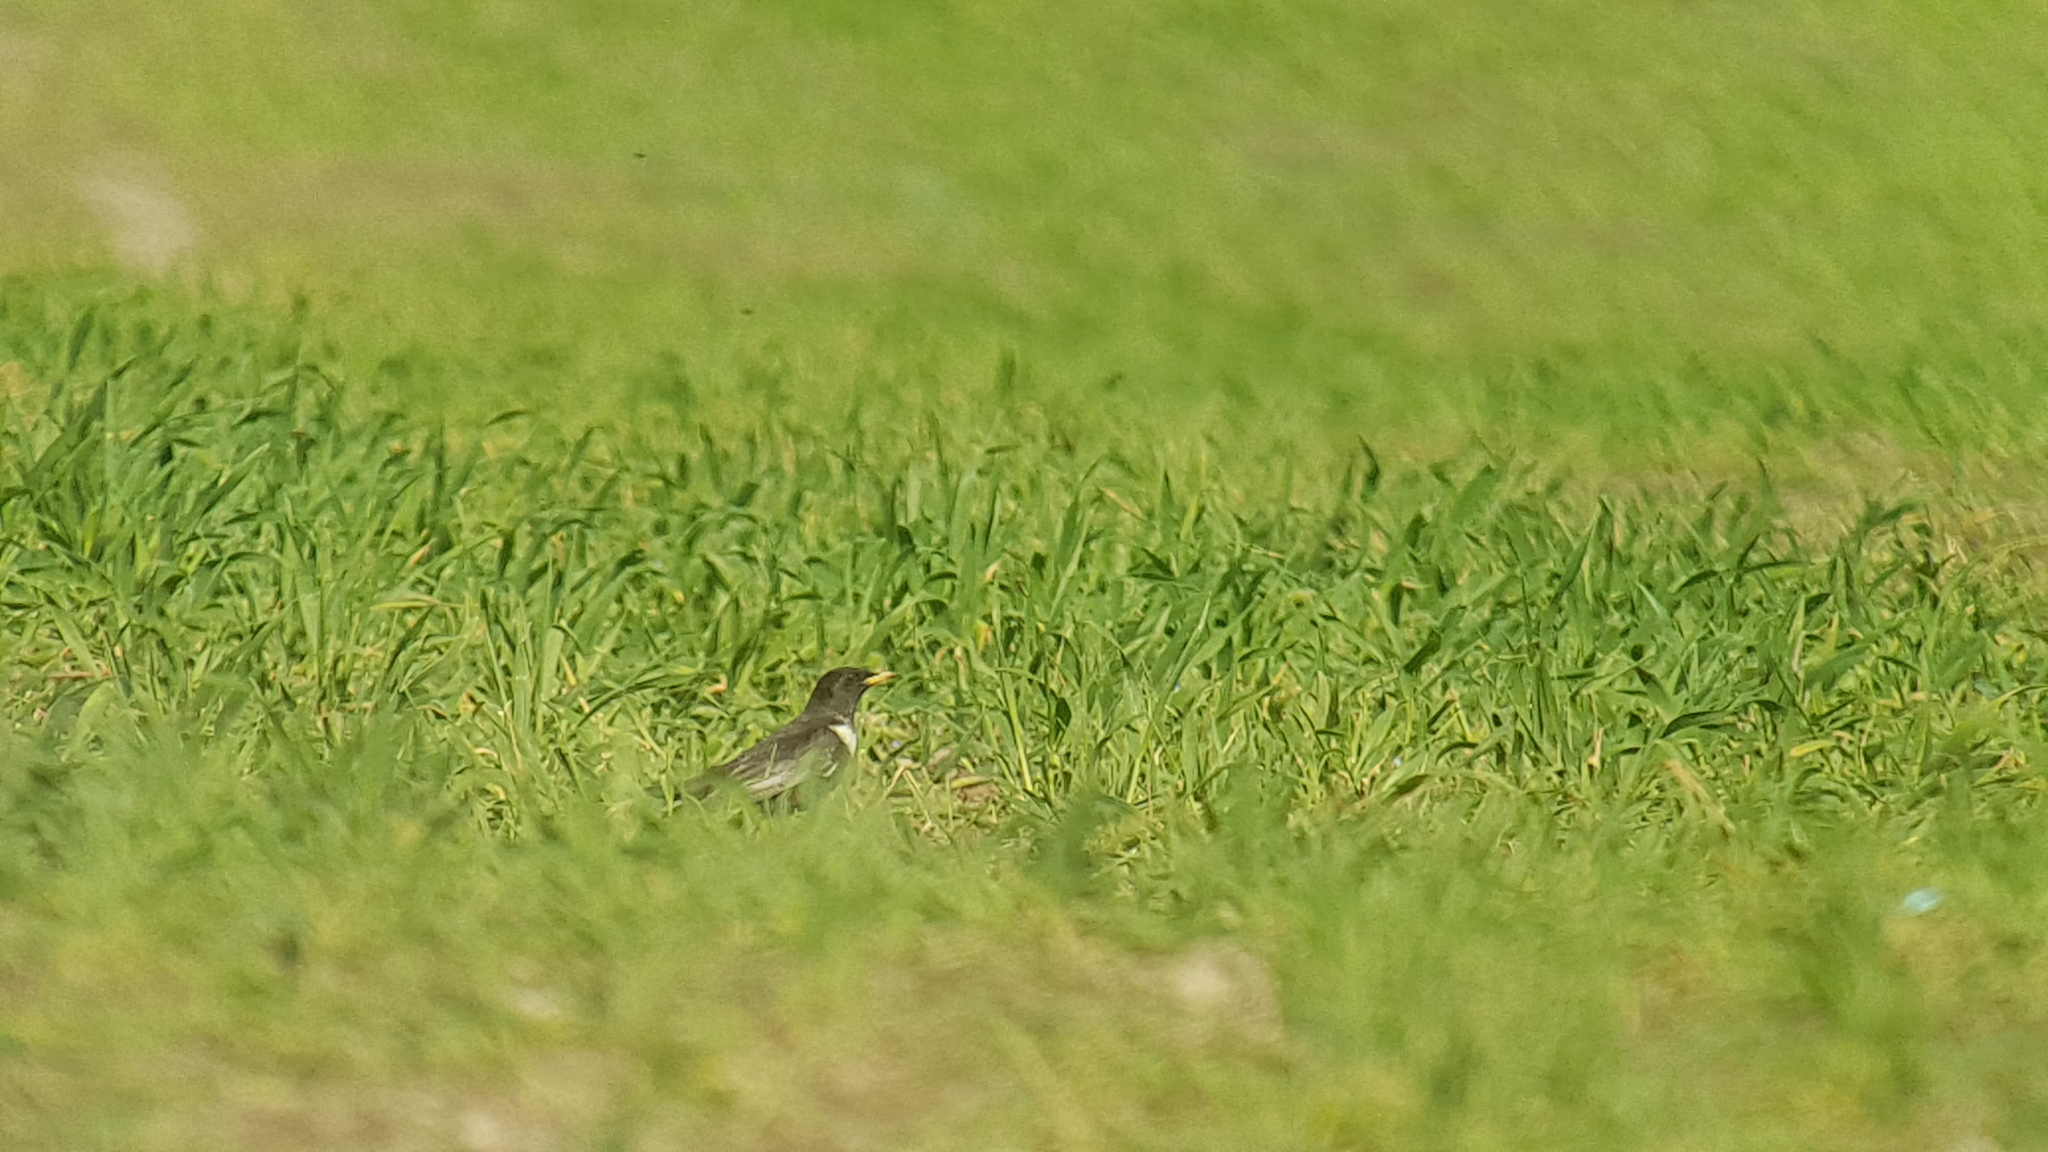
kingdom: Animalia
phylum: Chordata
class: Aves
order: Passeriformes
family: Turdidae
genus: Turdus
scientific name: Turdus torquatus
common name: Ring ouzel
